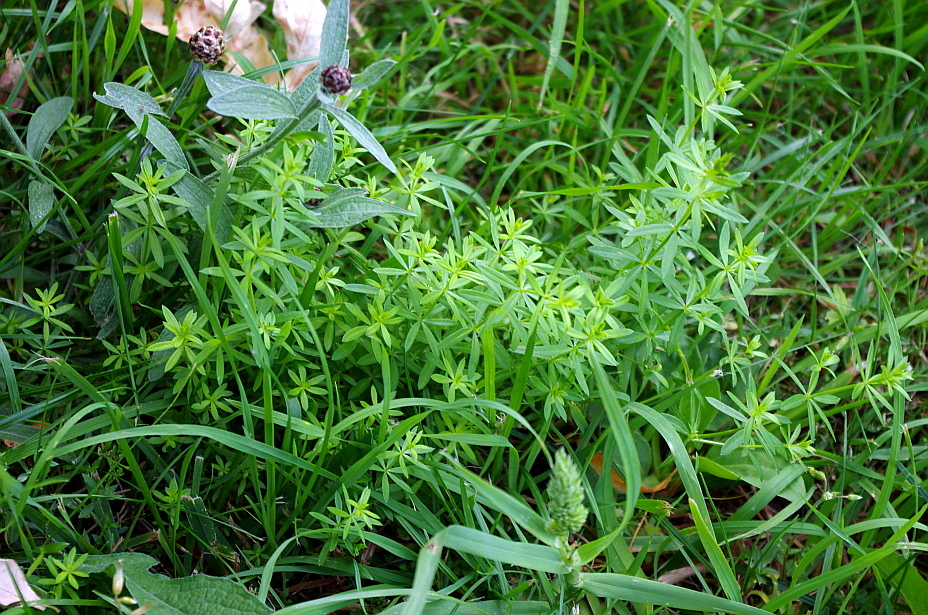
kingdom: Plantae
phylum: Tracheophyta
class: Magnoliopsida
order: Gentianales
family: Rubiaceae
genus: Galium
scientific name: Galium mollugo
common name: Hedge bedstraw
